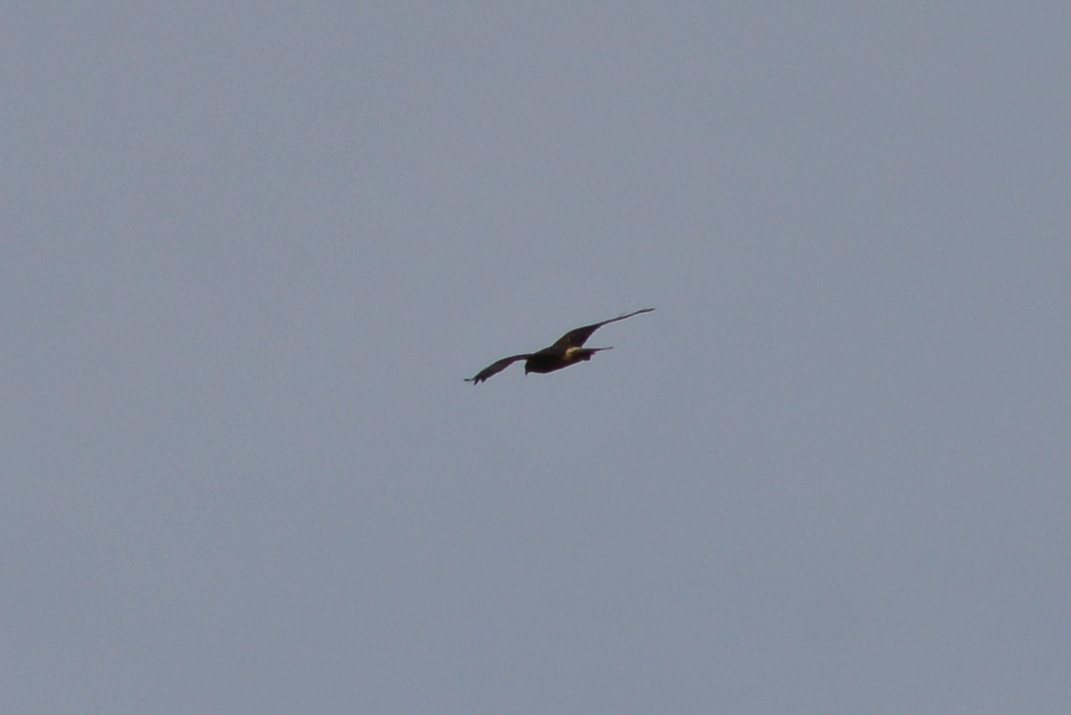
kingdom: Animalia
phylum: Chordata
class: Aves
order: Accipitriformes
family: Accipitridae
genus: Circus
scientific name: Circus approximans
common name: Swamp harrier
